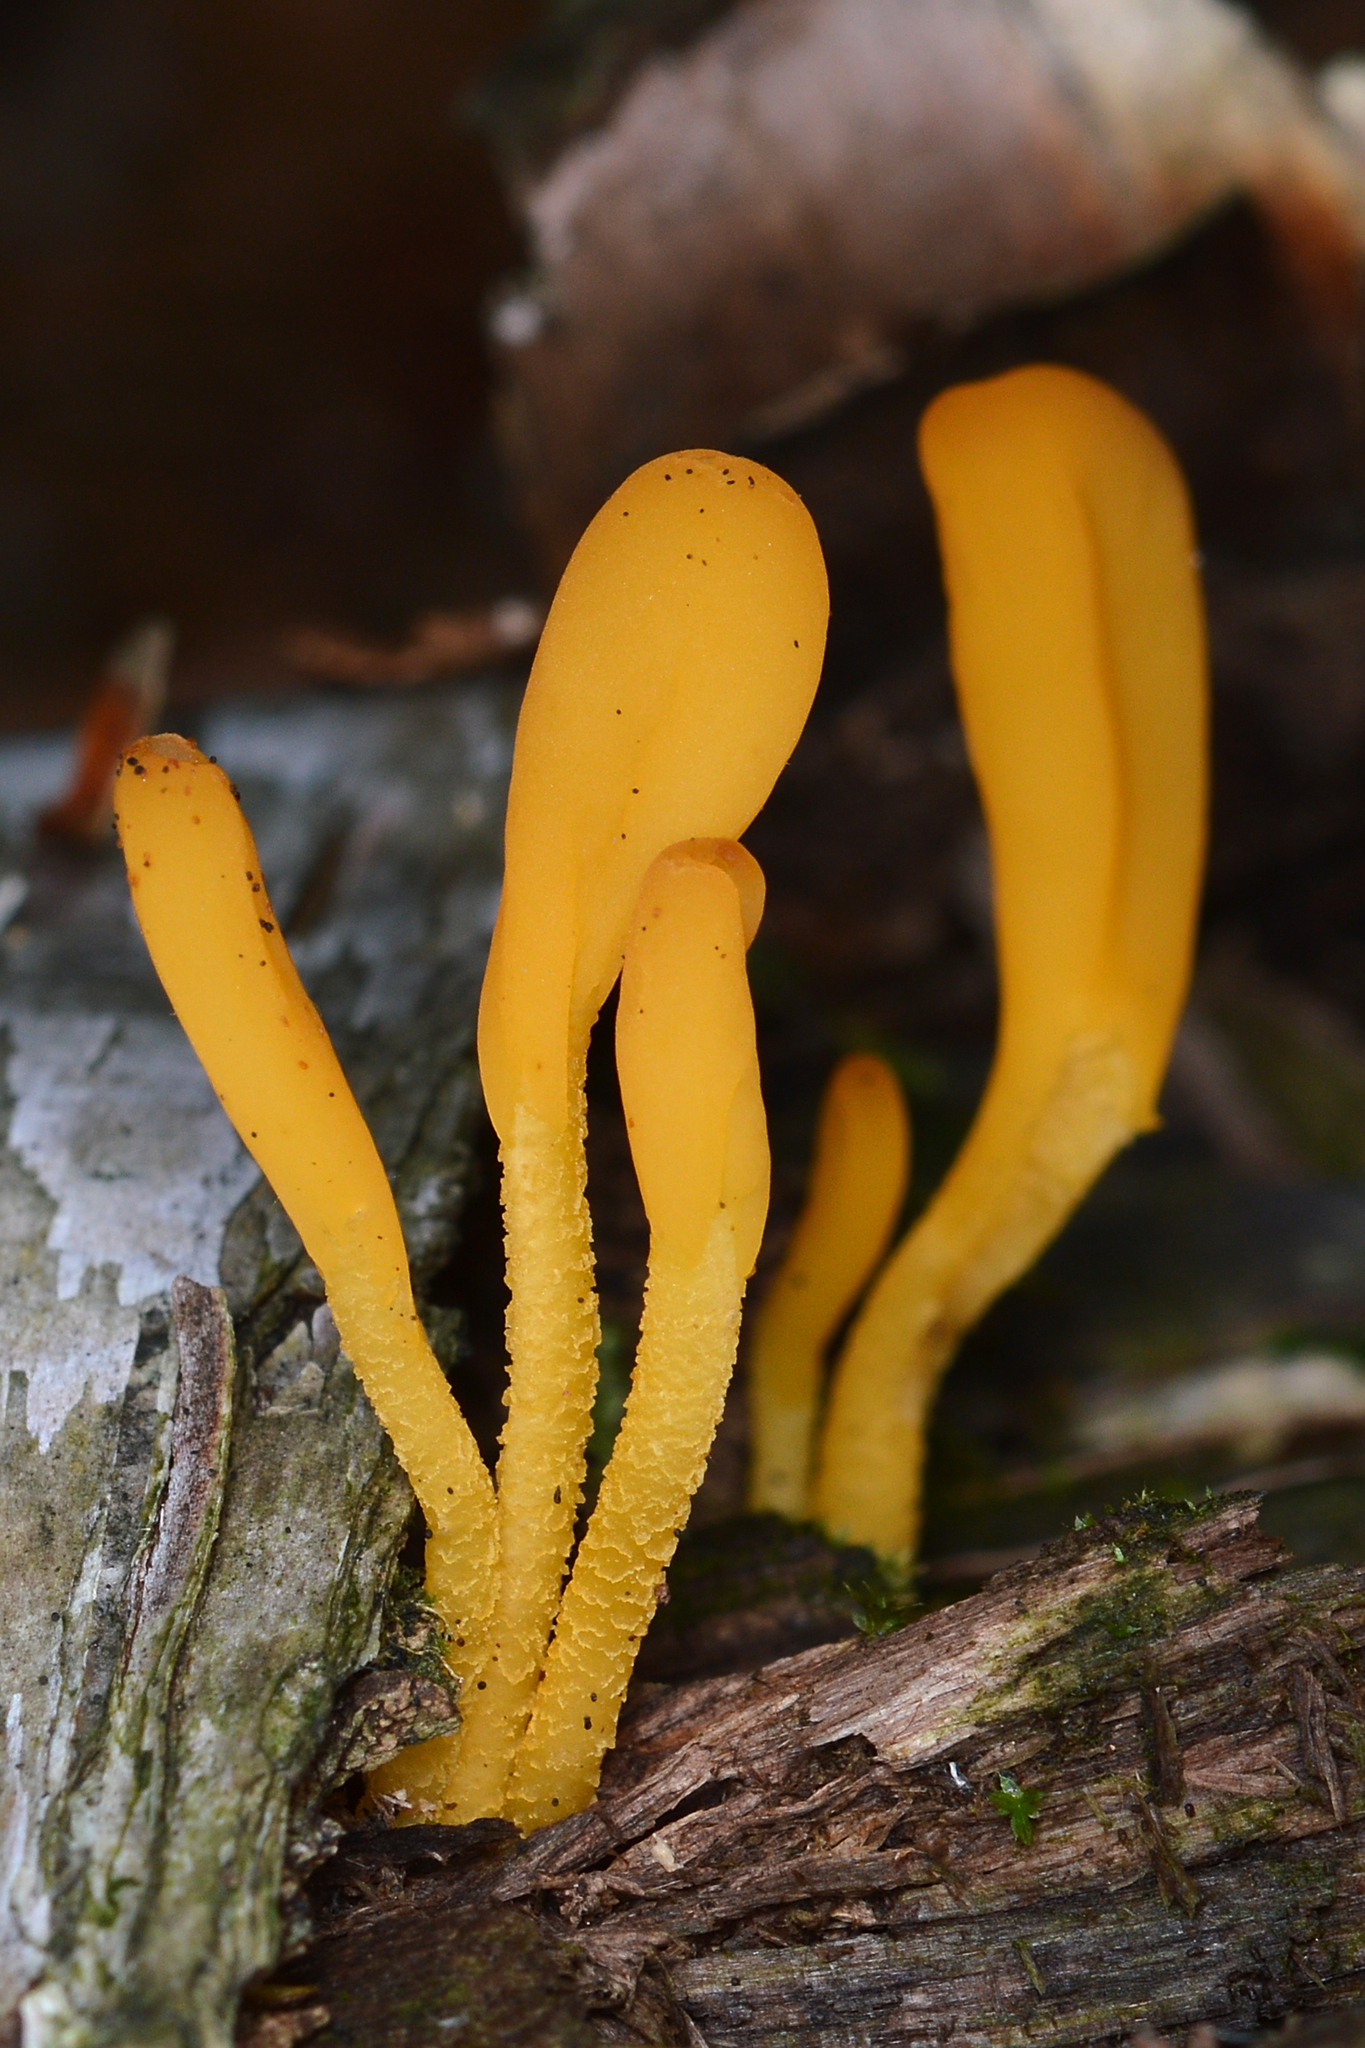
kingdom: Fungi
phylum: Ascomycota
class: Leotiomycetes
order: Leotiales
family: Leotiaceae
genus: Microglossum
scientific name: Microglossum rufum
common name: Orange earthtongue
